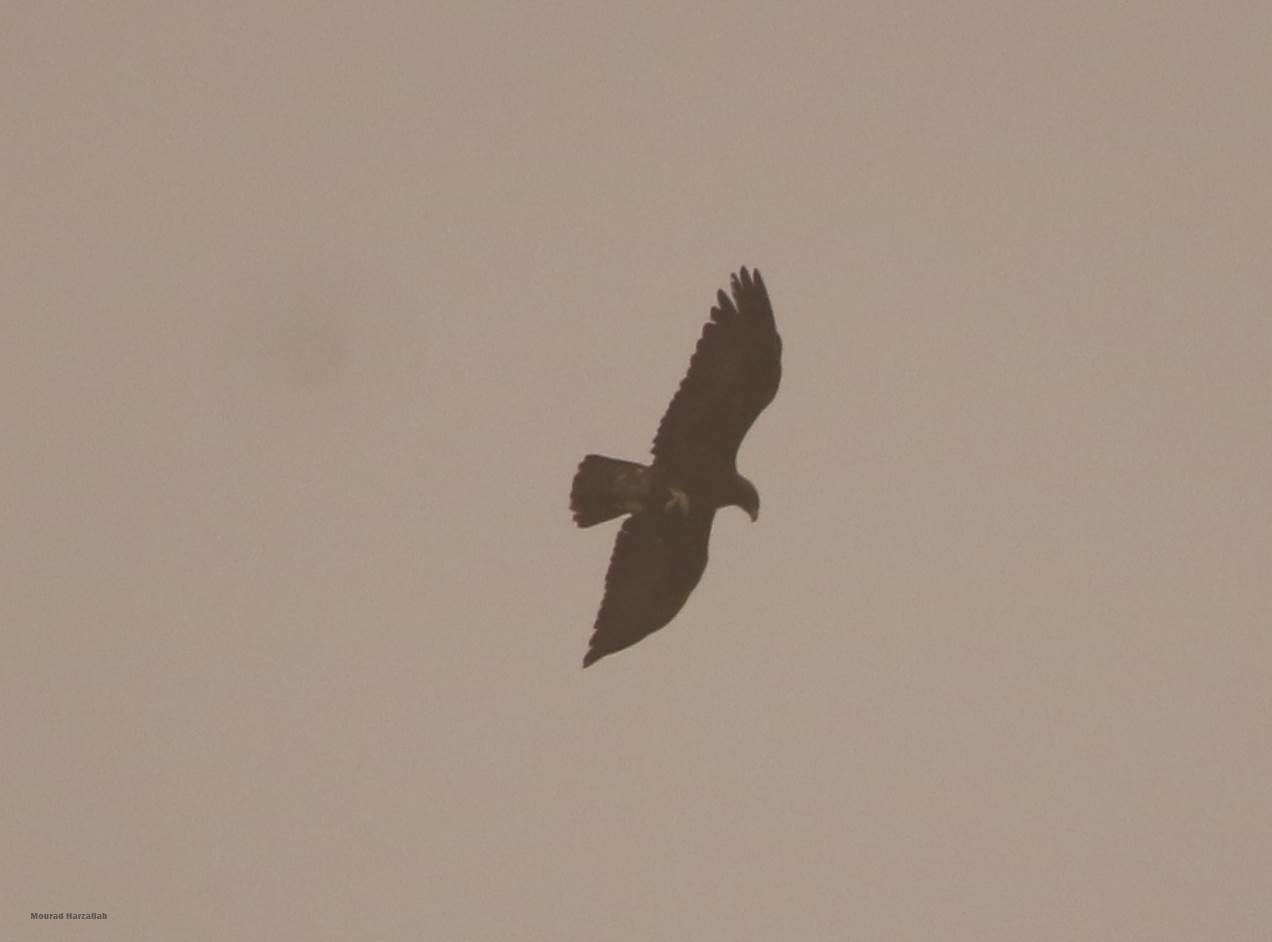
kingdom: Animalia
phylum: Chordata
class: Aves
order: Accipitriformes
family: Accipitridae
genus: Aquila
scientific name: Aquila chrysaetos
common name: Golden eagle
